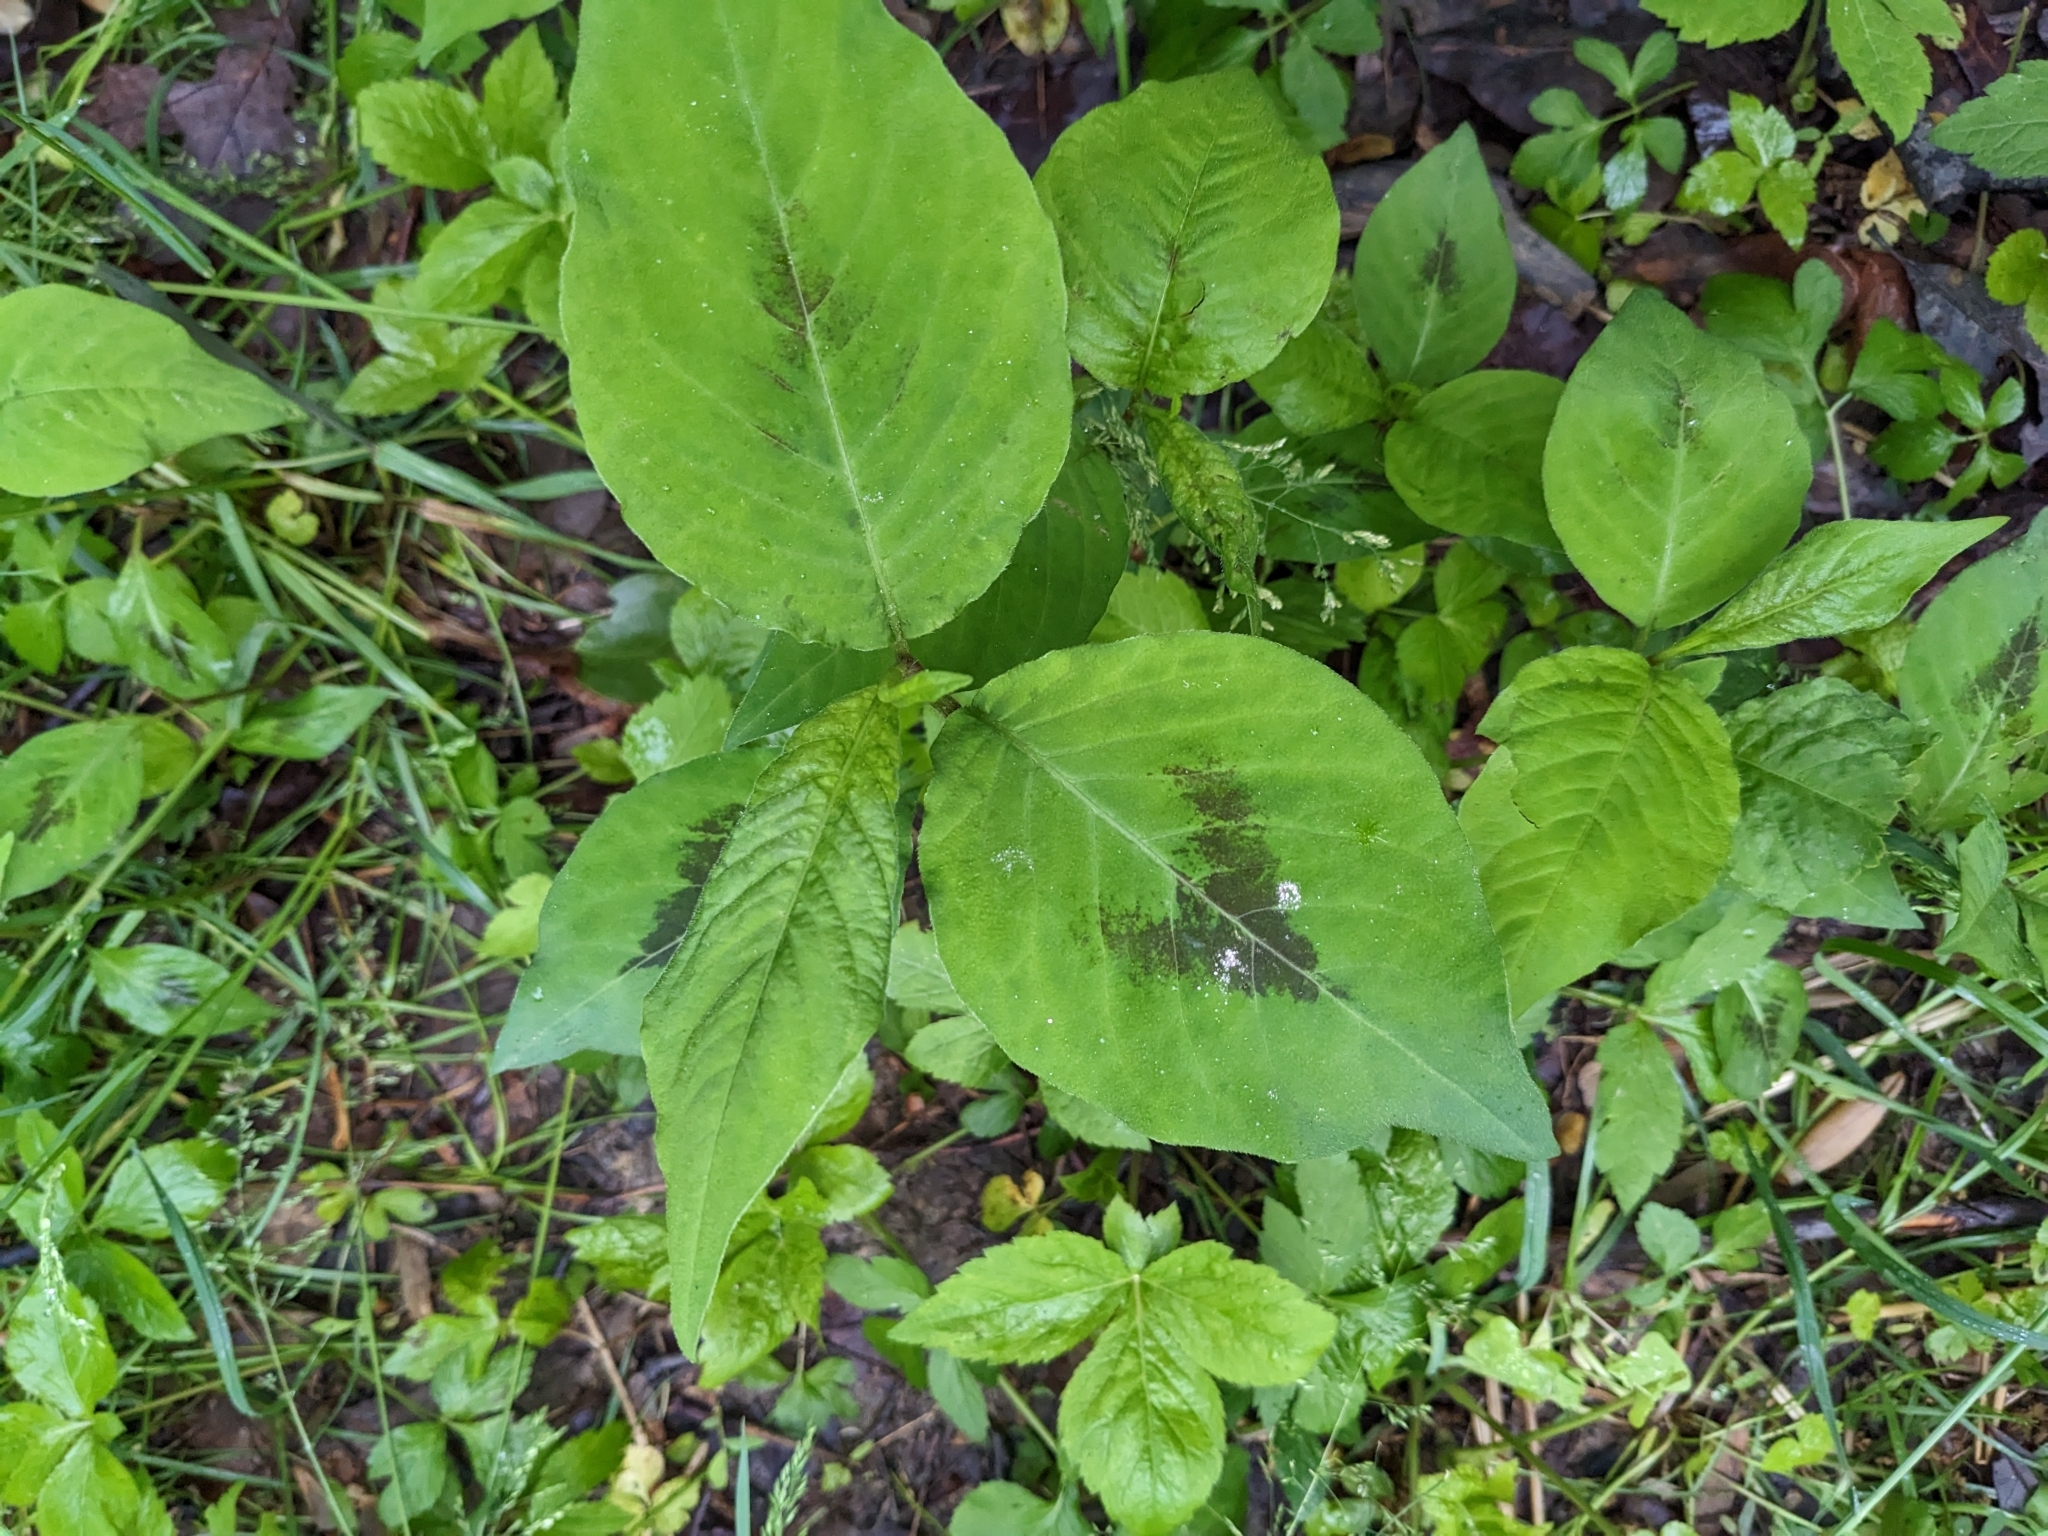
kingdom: Plantae
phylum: Tracheophyta
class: Magnoliopsida
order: Caryophyllales
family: Polygonaceae
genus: Persicaria
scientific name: Persicaria virginiana
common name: Jumpseed
